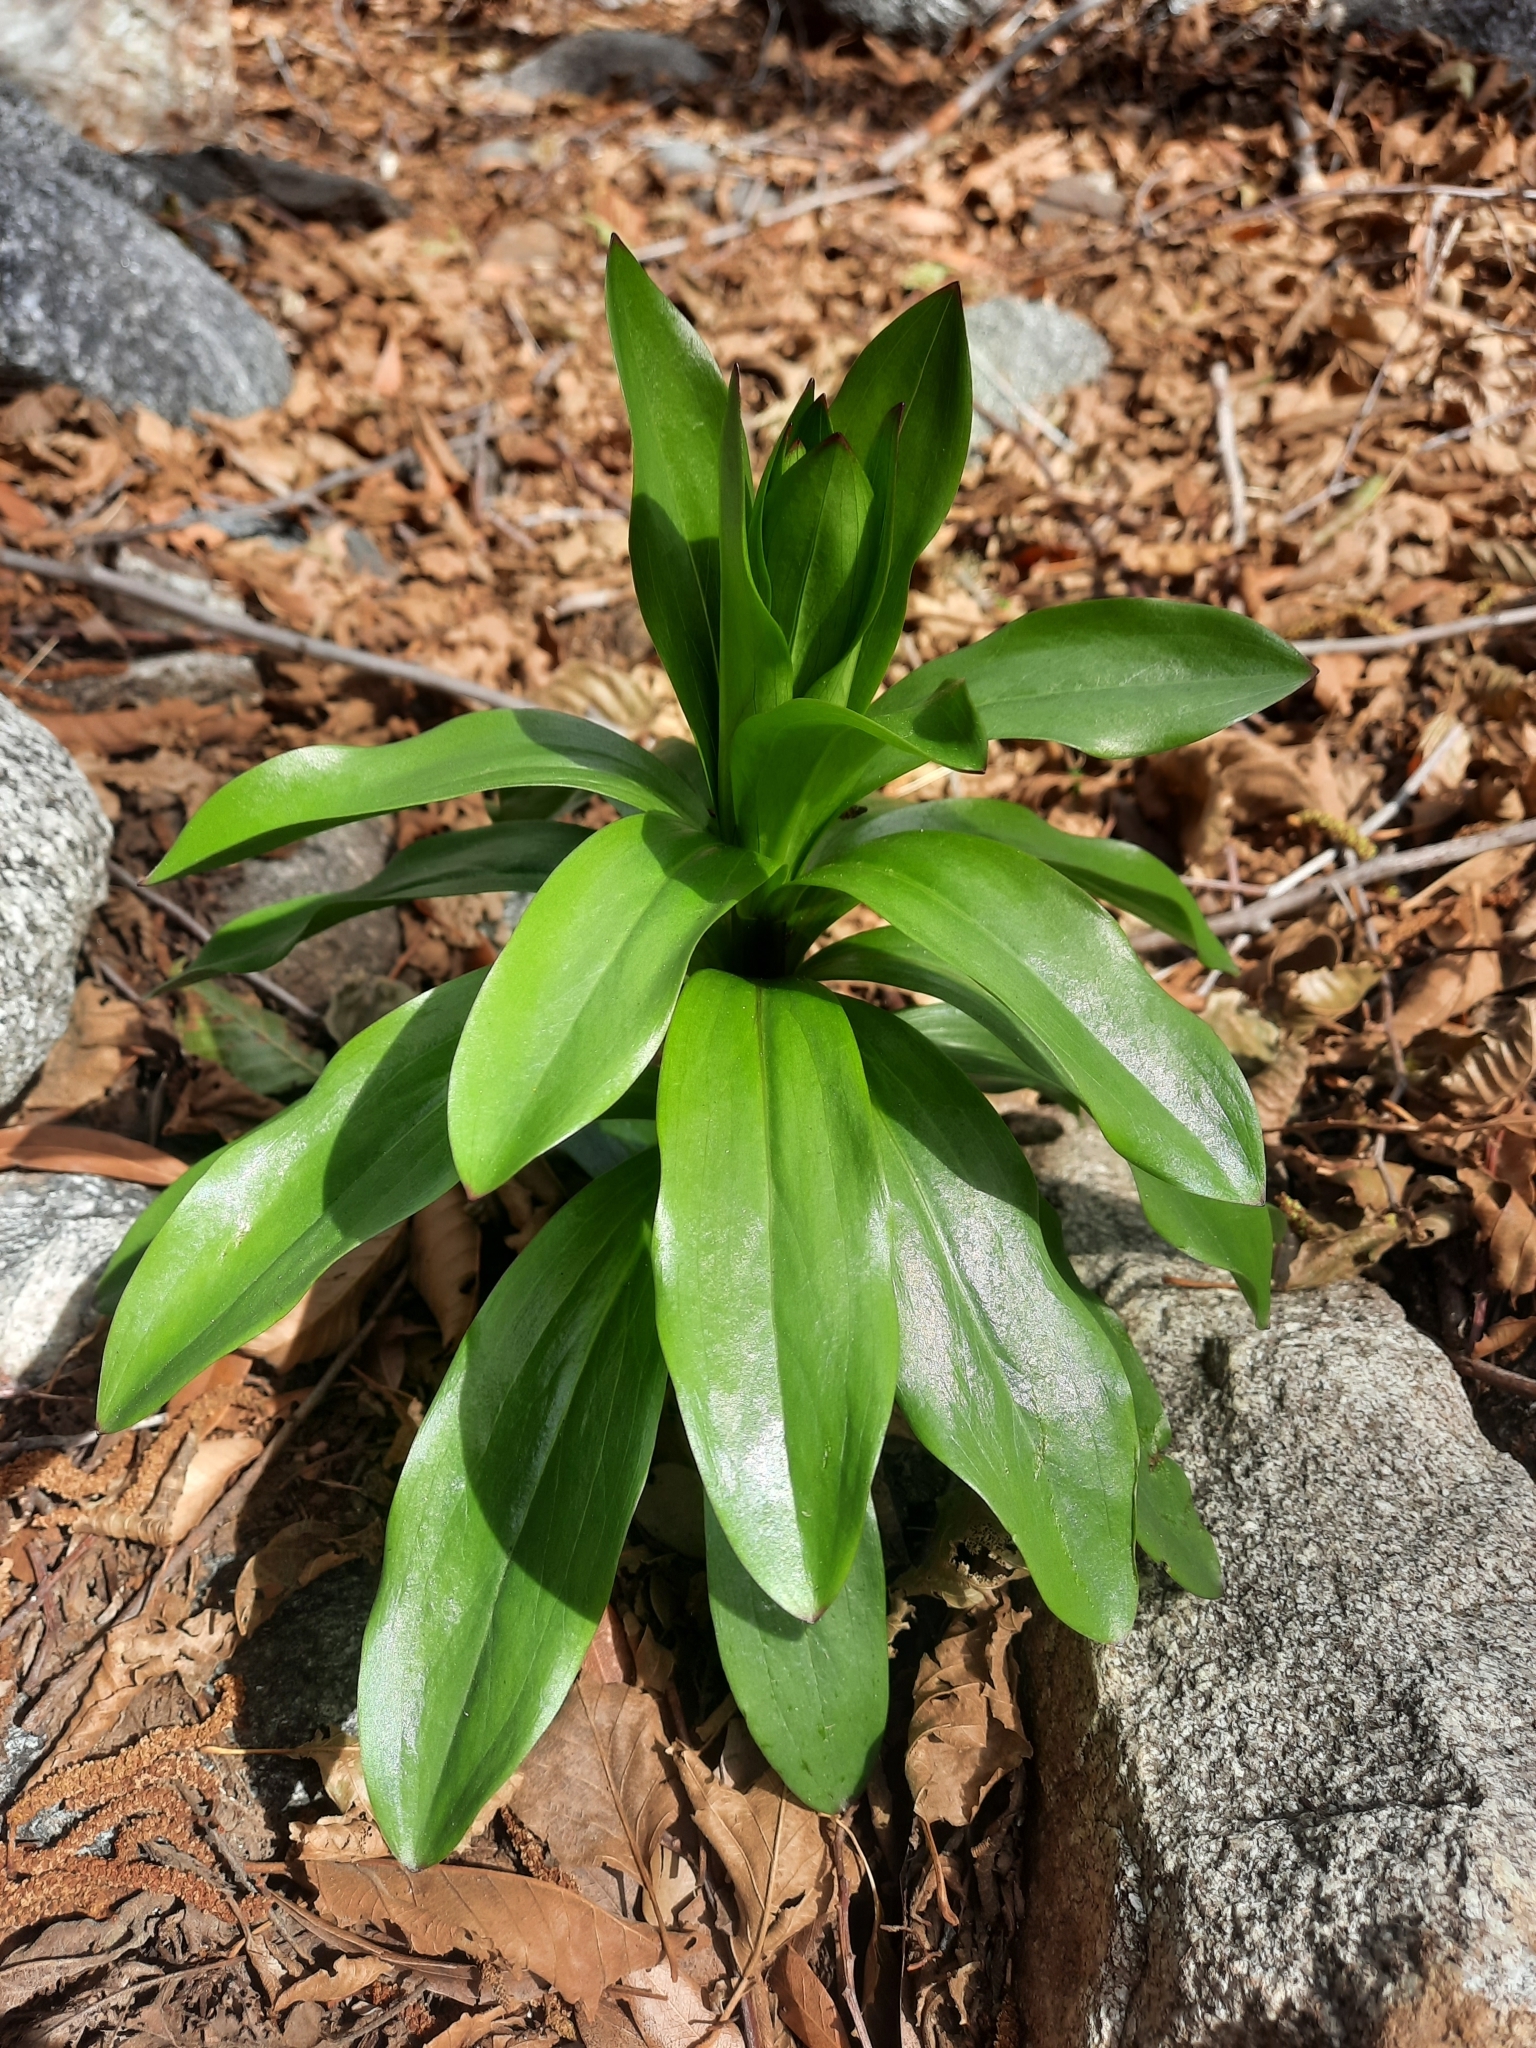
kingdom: Plantae
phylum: Tracheophyta
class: Liliopsida
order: Liliales
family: Liliaceae
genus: Lilium
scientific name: Lilium humboldtii
